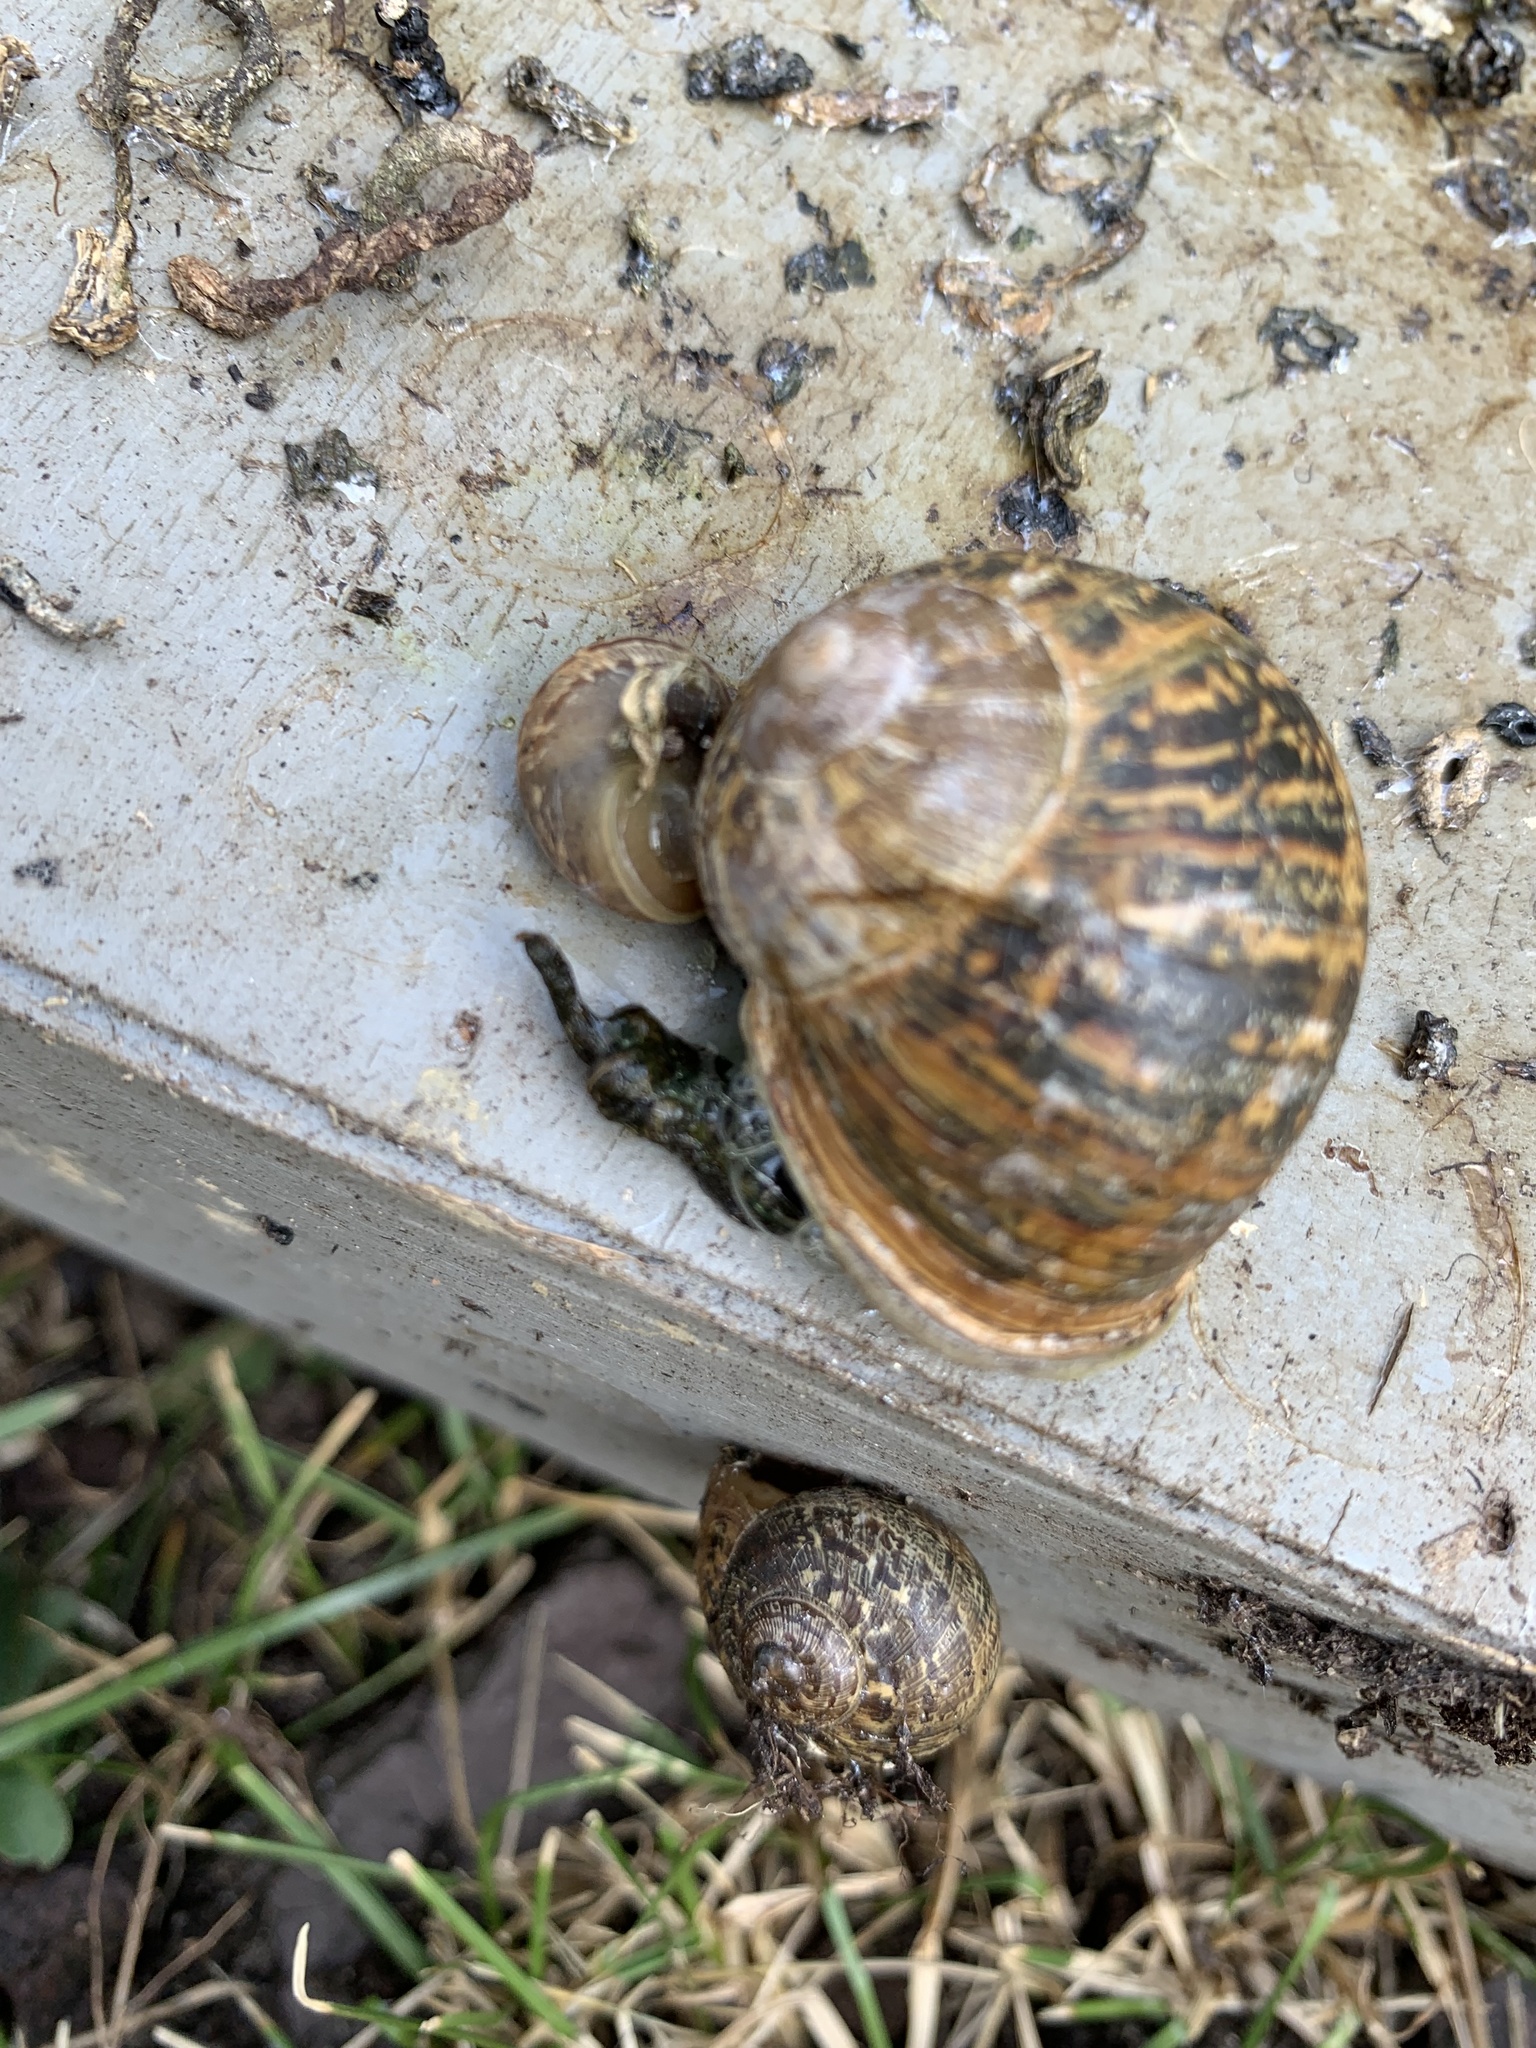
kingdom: Animalia
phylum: Mollusca
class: Gastropoda
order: Stylommatophora
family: Helicidae
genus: Cornu
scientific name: Cornu aspersum
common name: Brown garden snail
